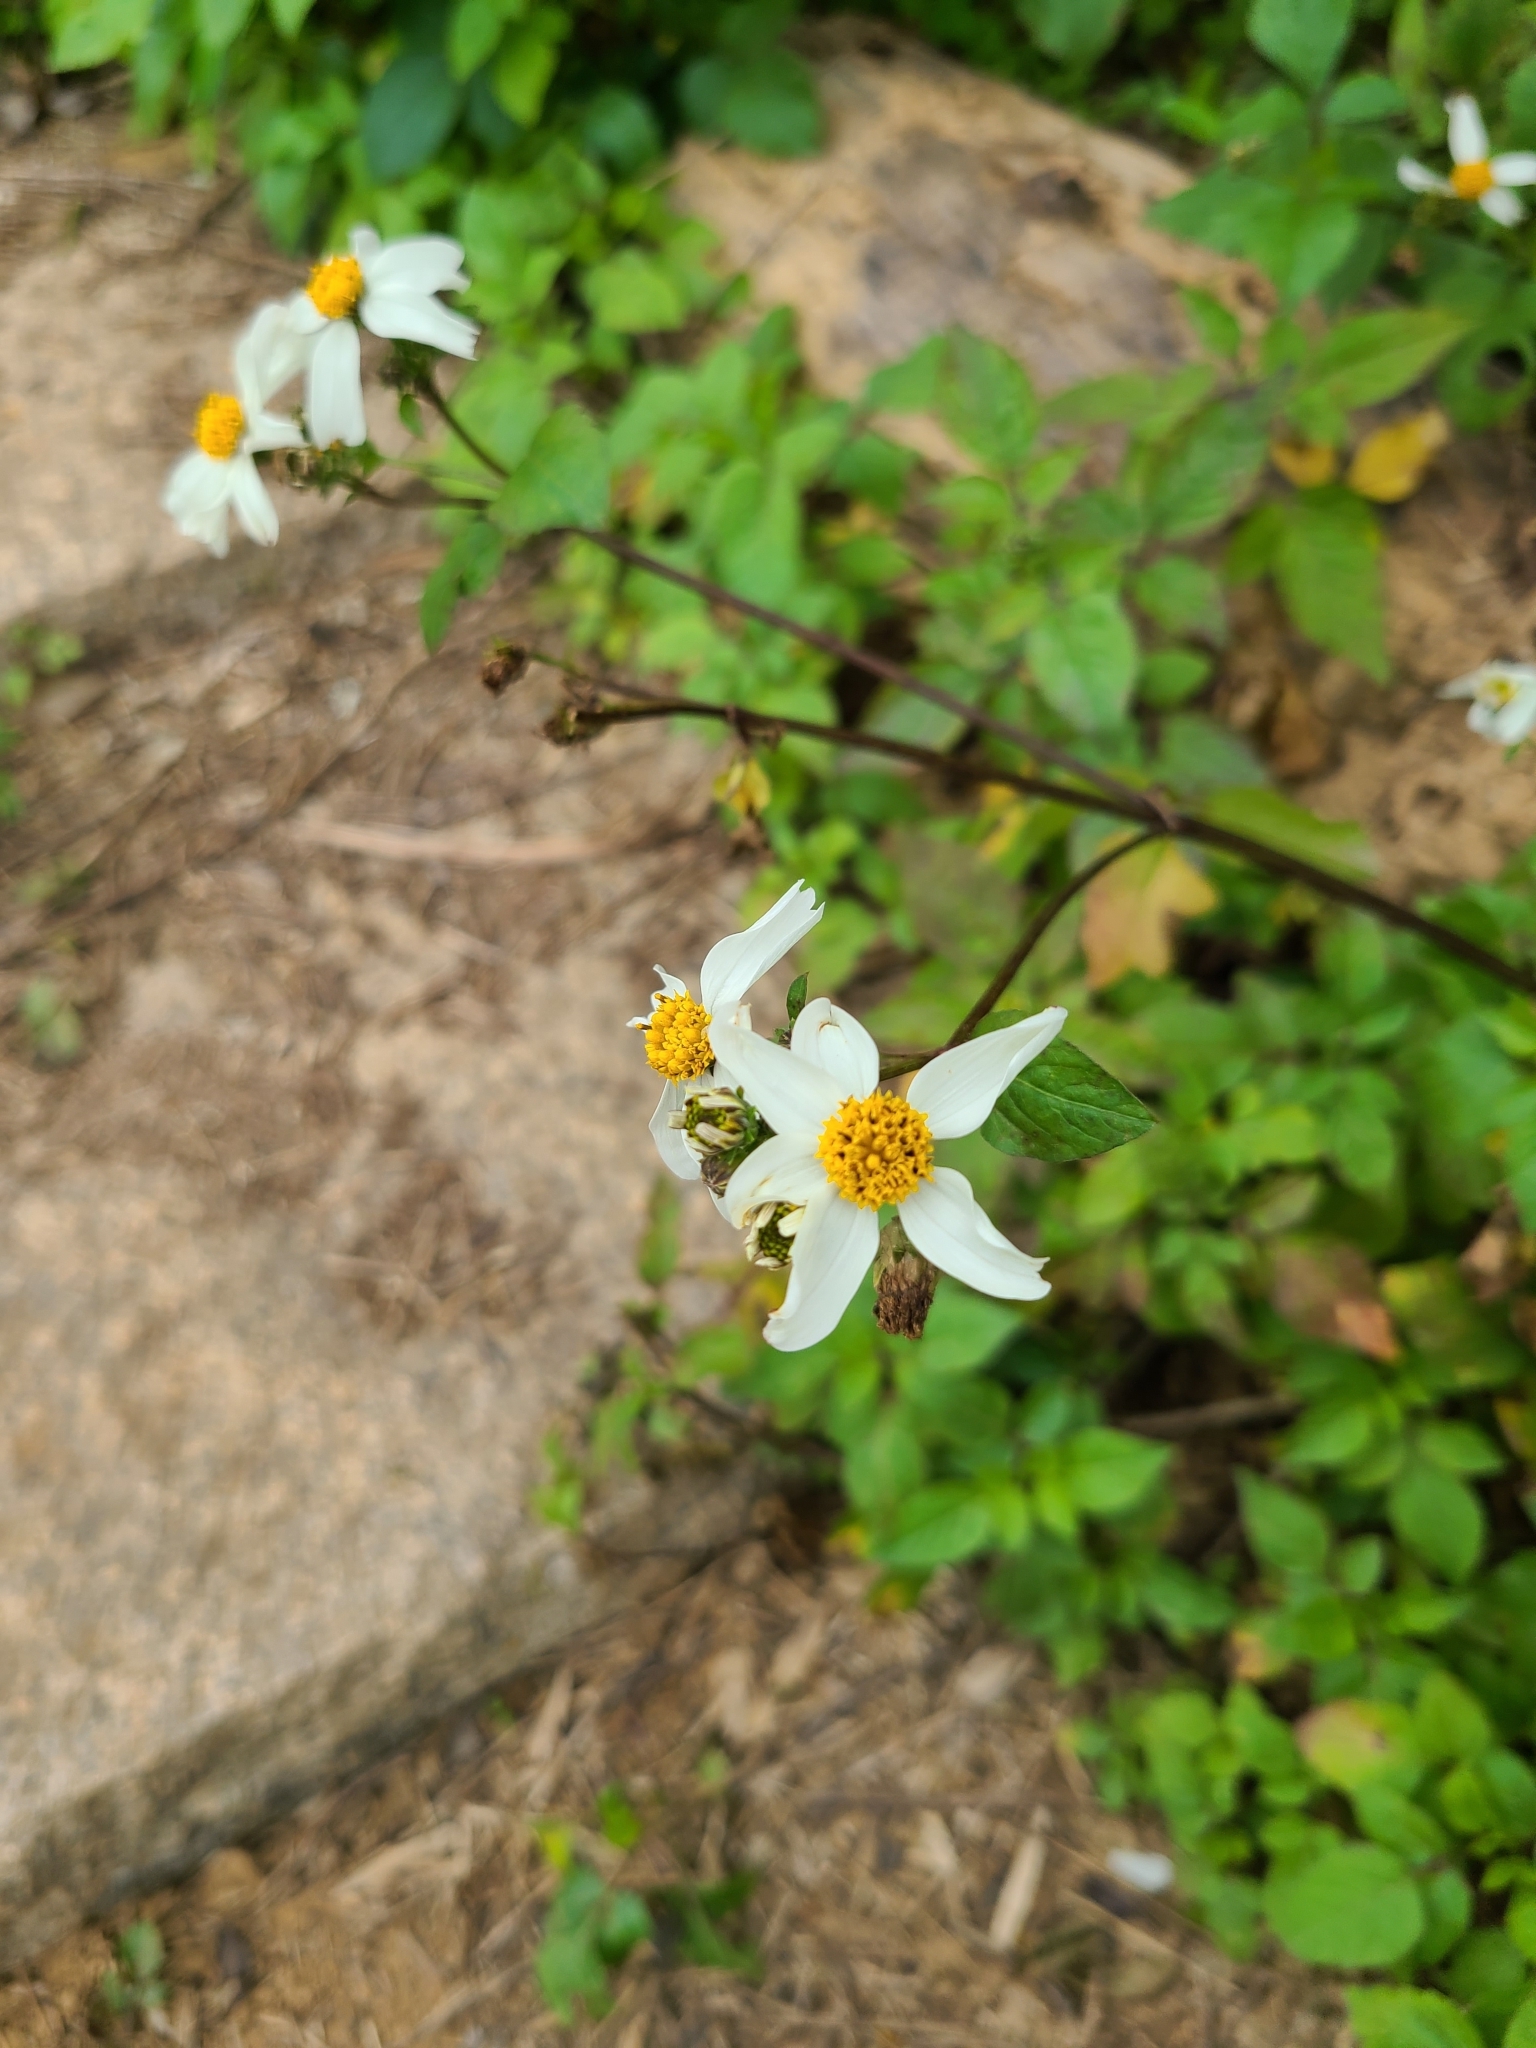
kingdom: Plantae
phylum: Tracheophyta
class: Magnoliopsida
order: Asterales
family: Asteraceae
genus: Bidens
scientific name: Bidens alba
